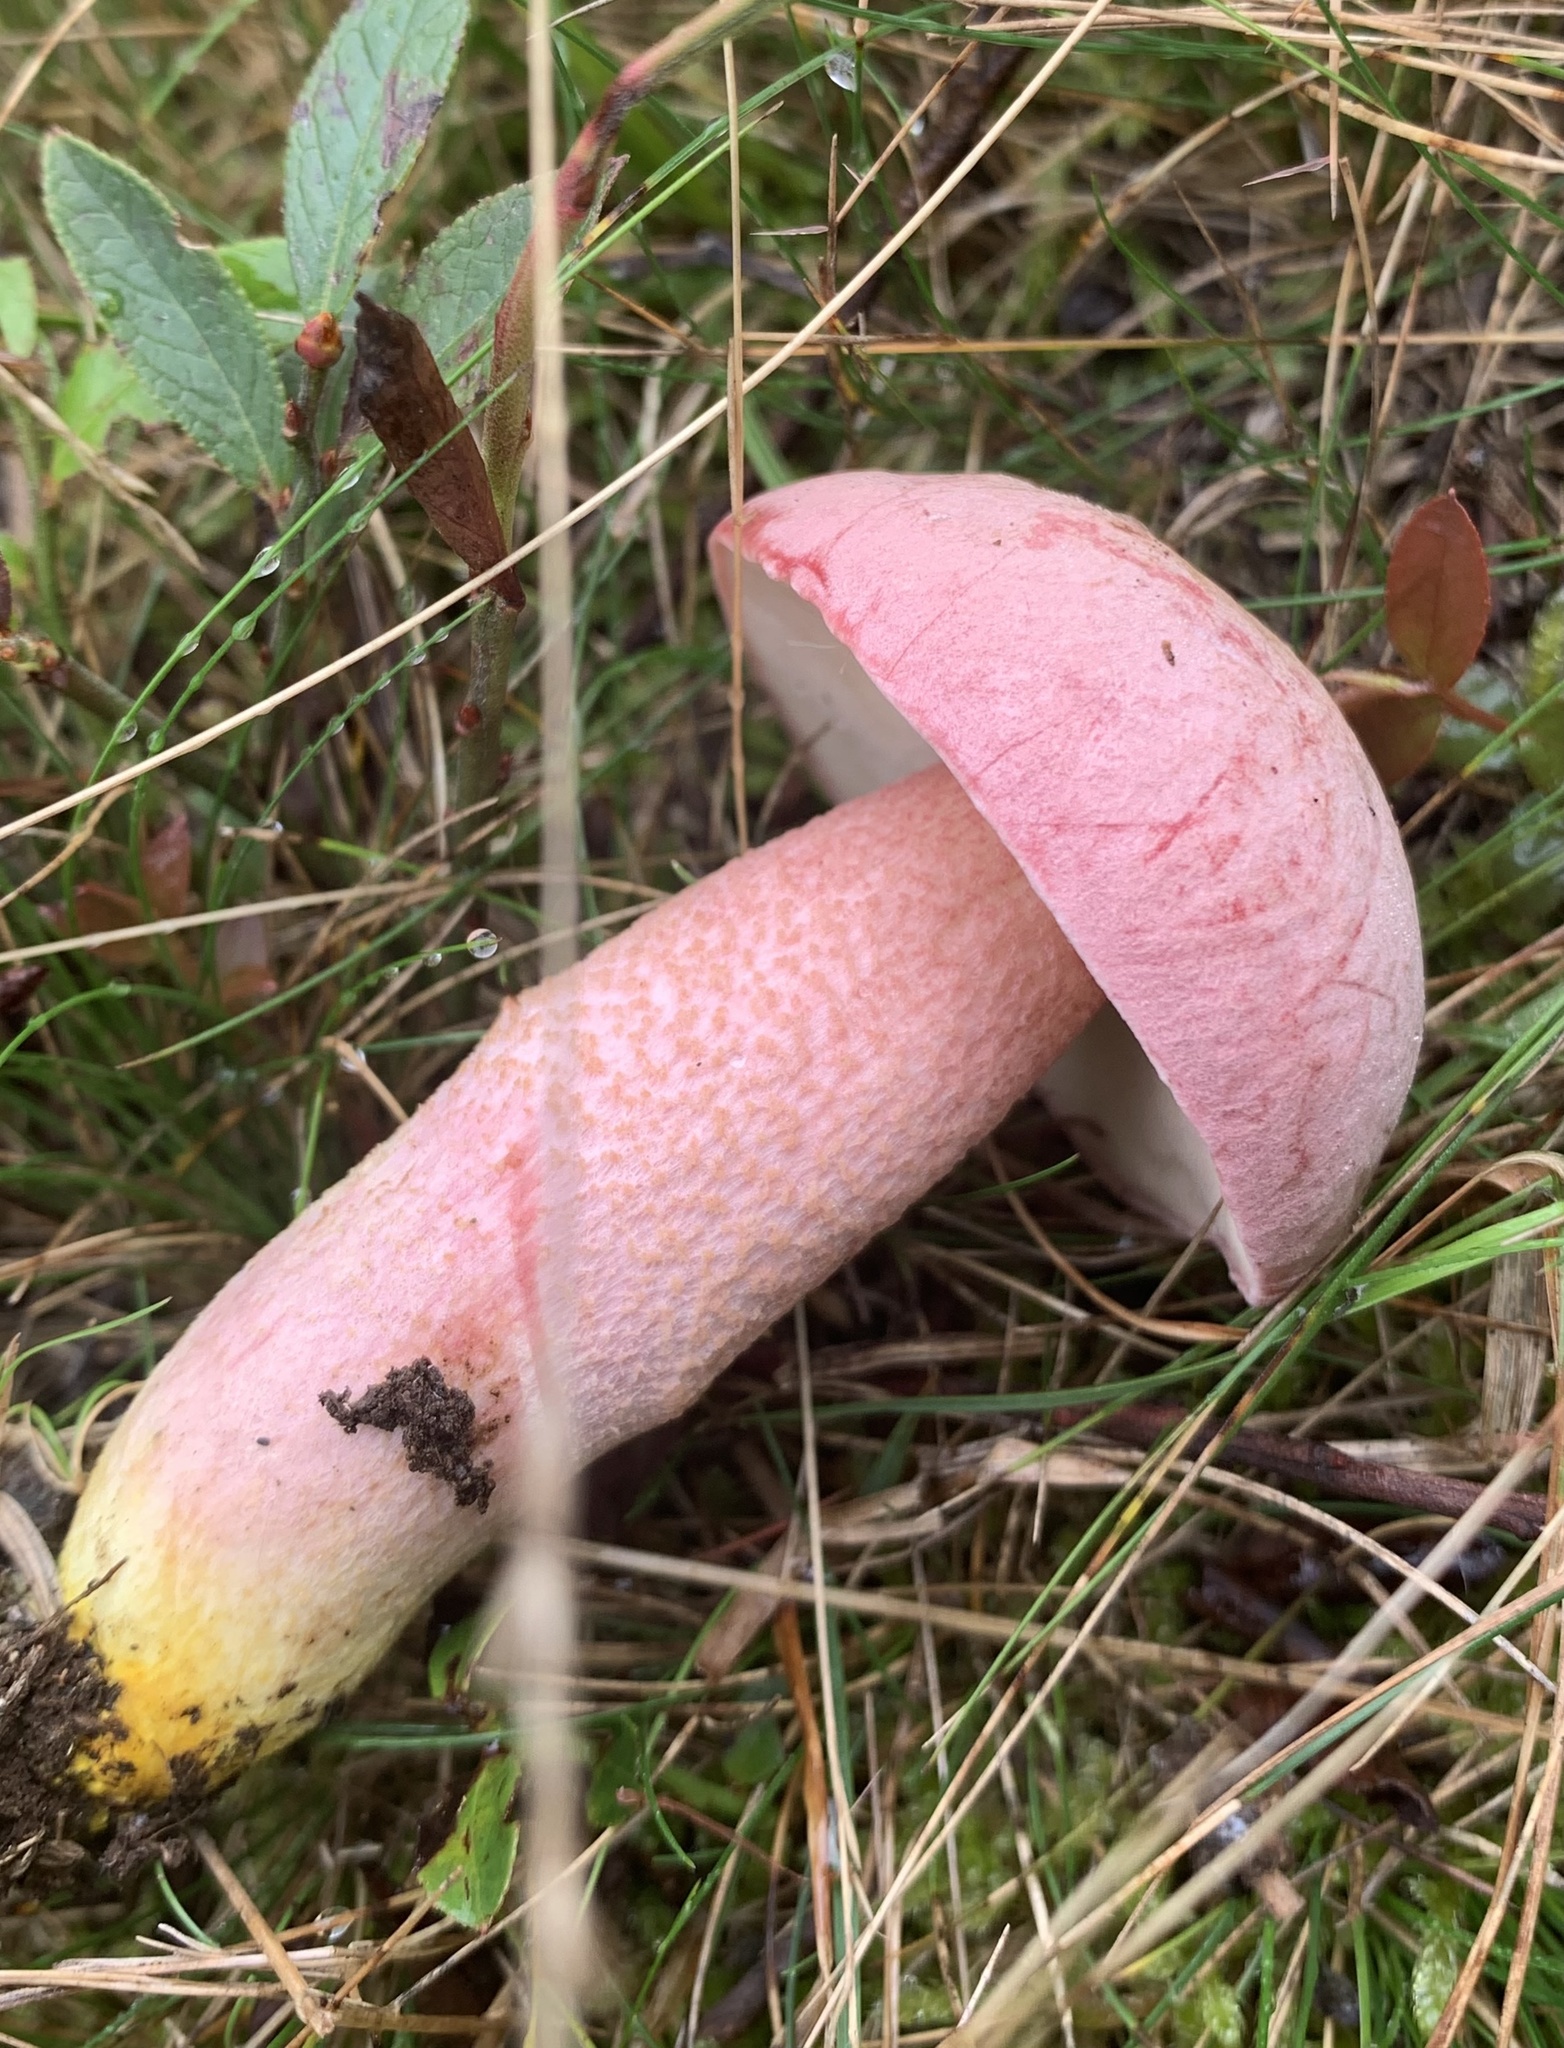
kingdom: Fungi
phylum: Basidiomycota
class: Agaricomycetes
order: Boletales
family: Boletaceae
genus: Harrya
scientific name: Harrya chromipes
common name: Chrome-footed bolete
